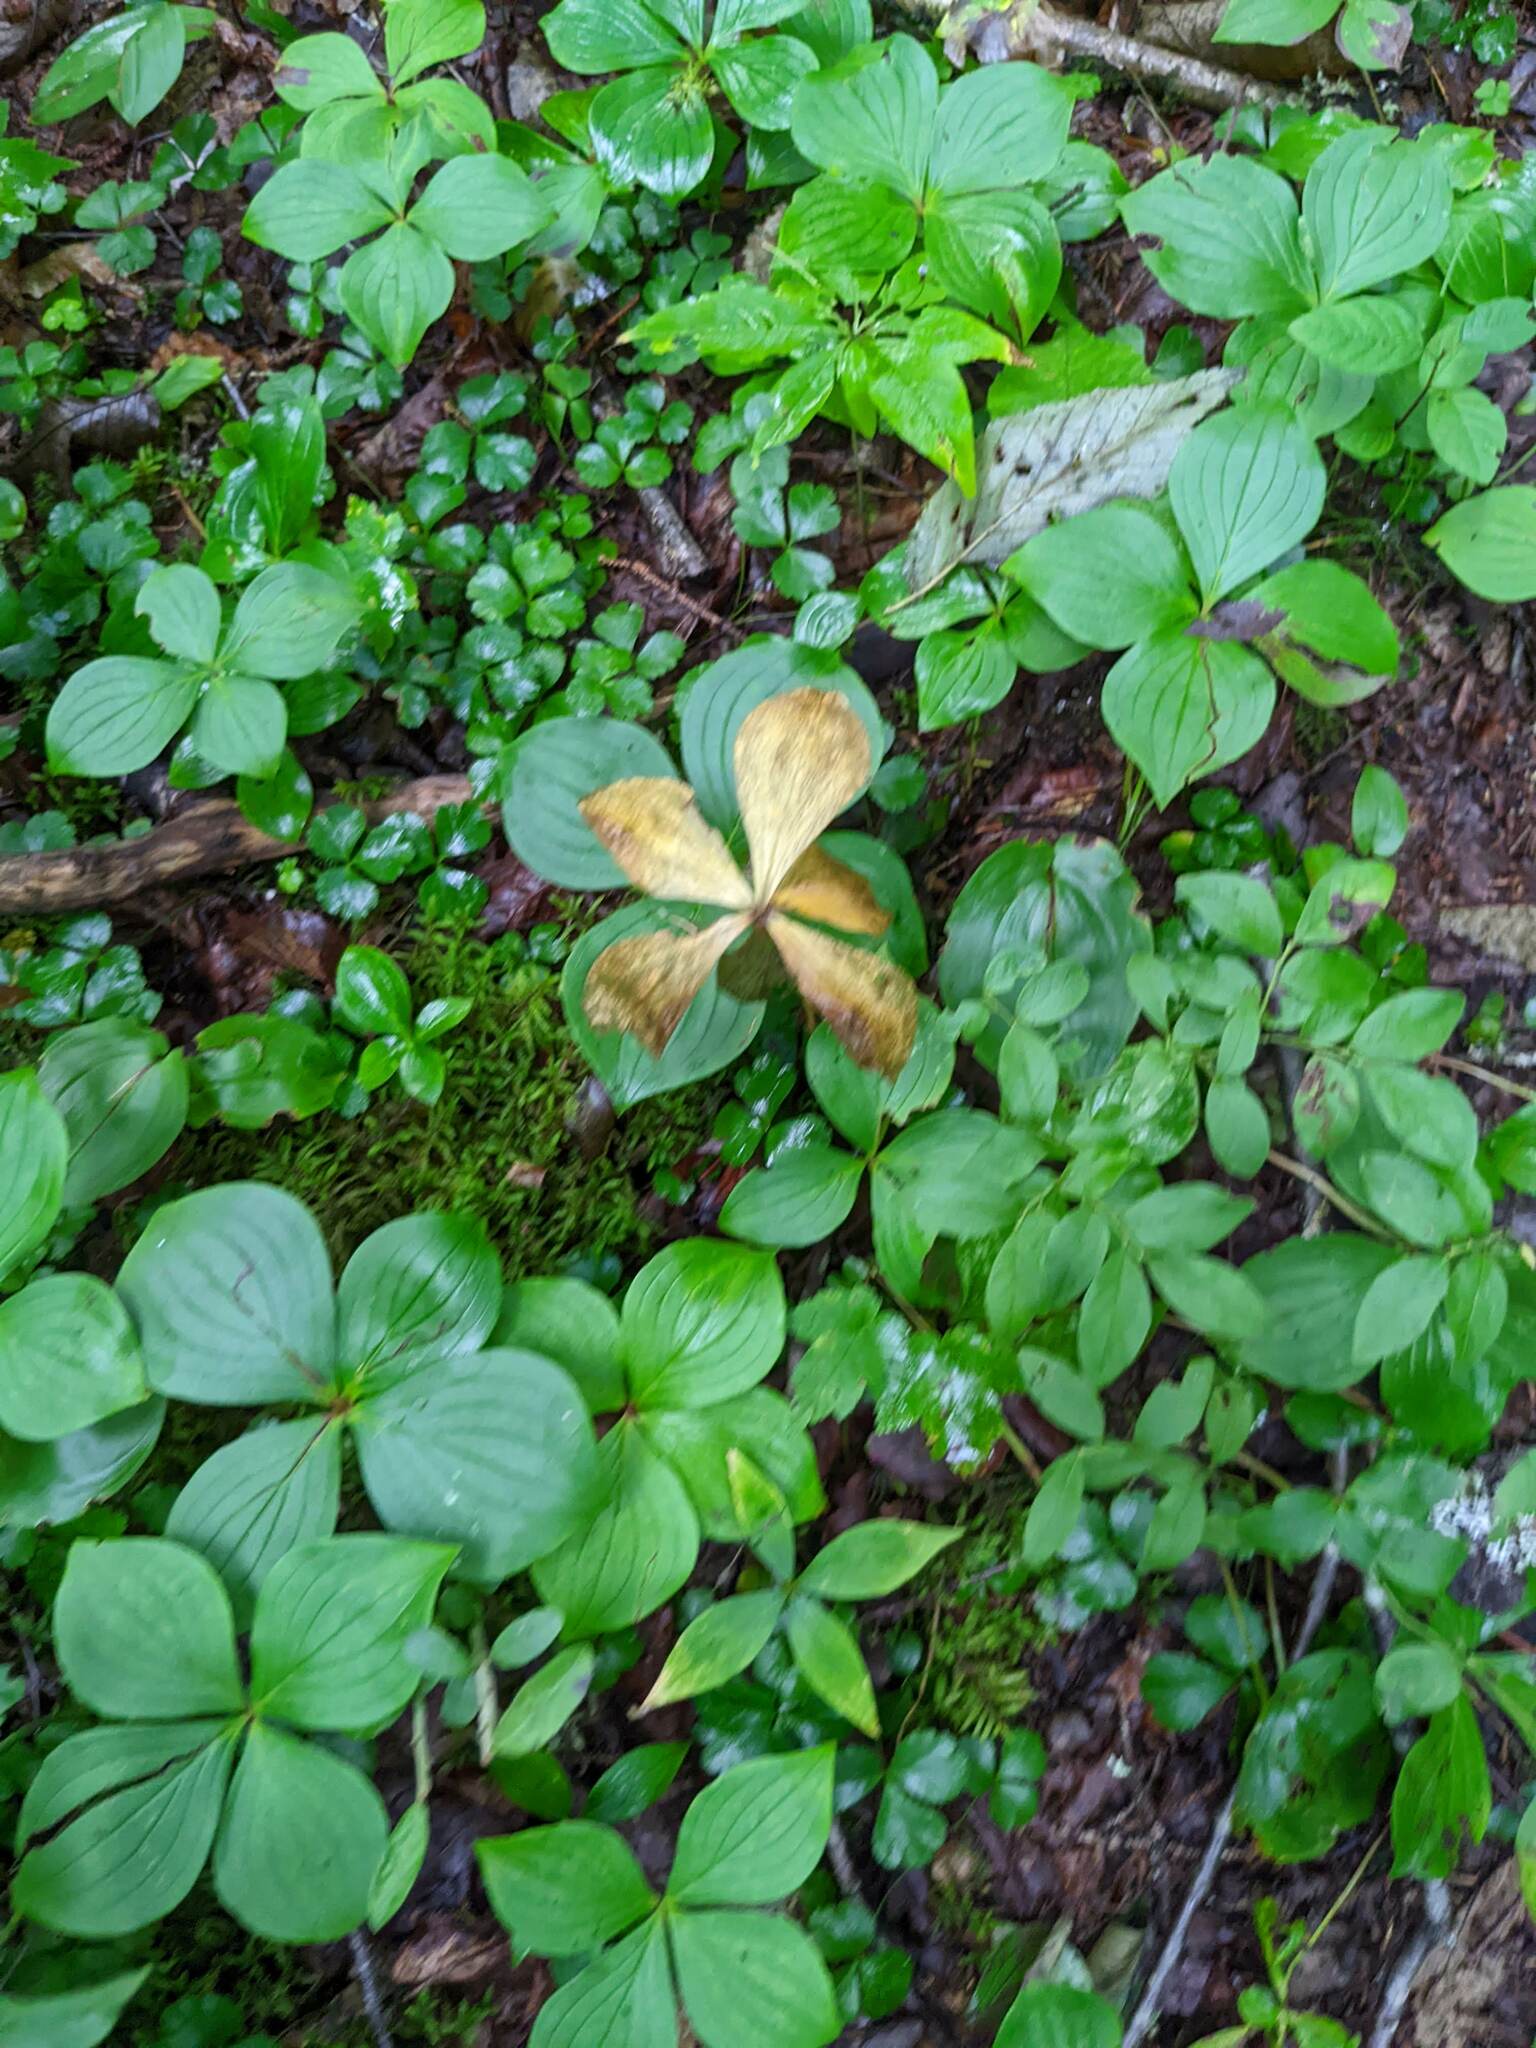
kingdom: Plantae
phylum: Tracheophyta
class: Magnoliopsida
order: Cornales
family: Cornaceae
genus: Cornus
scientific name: Cornus canadensis
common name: Creeping dogwood
